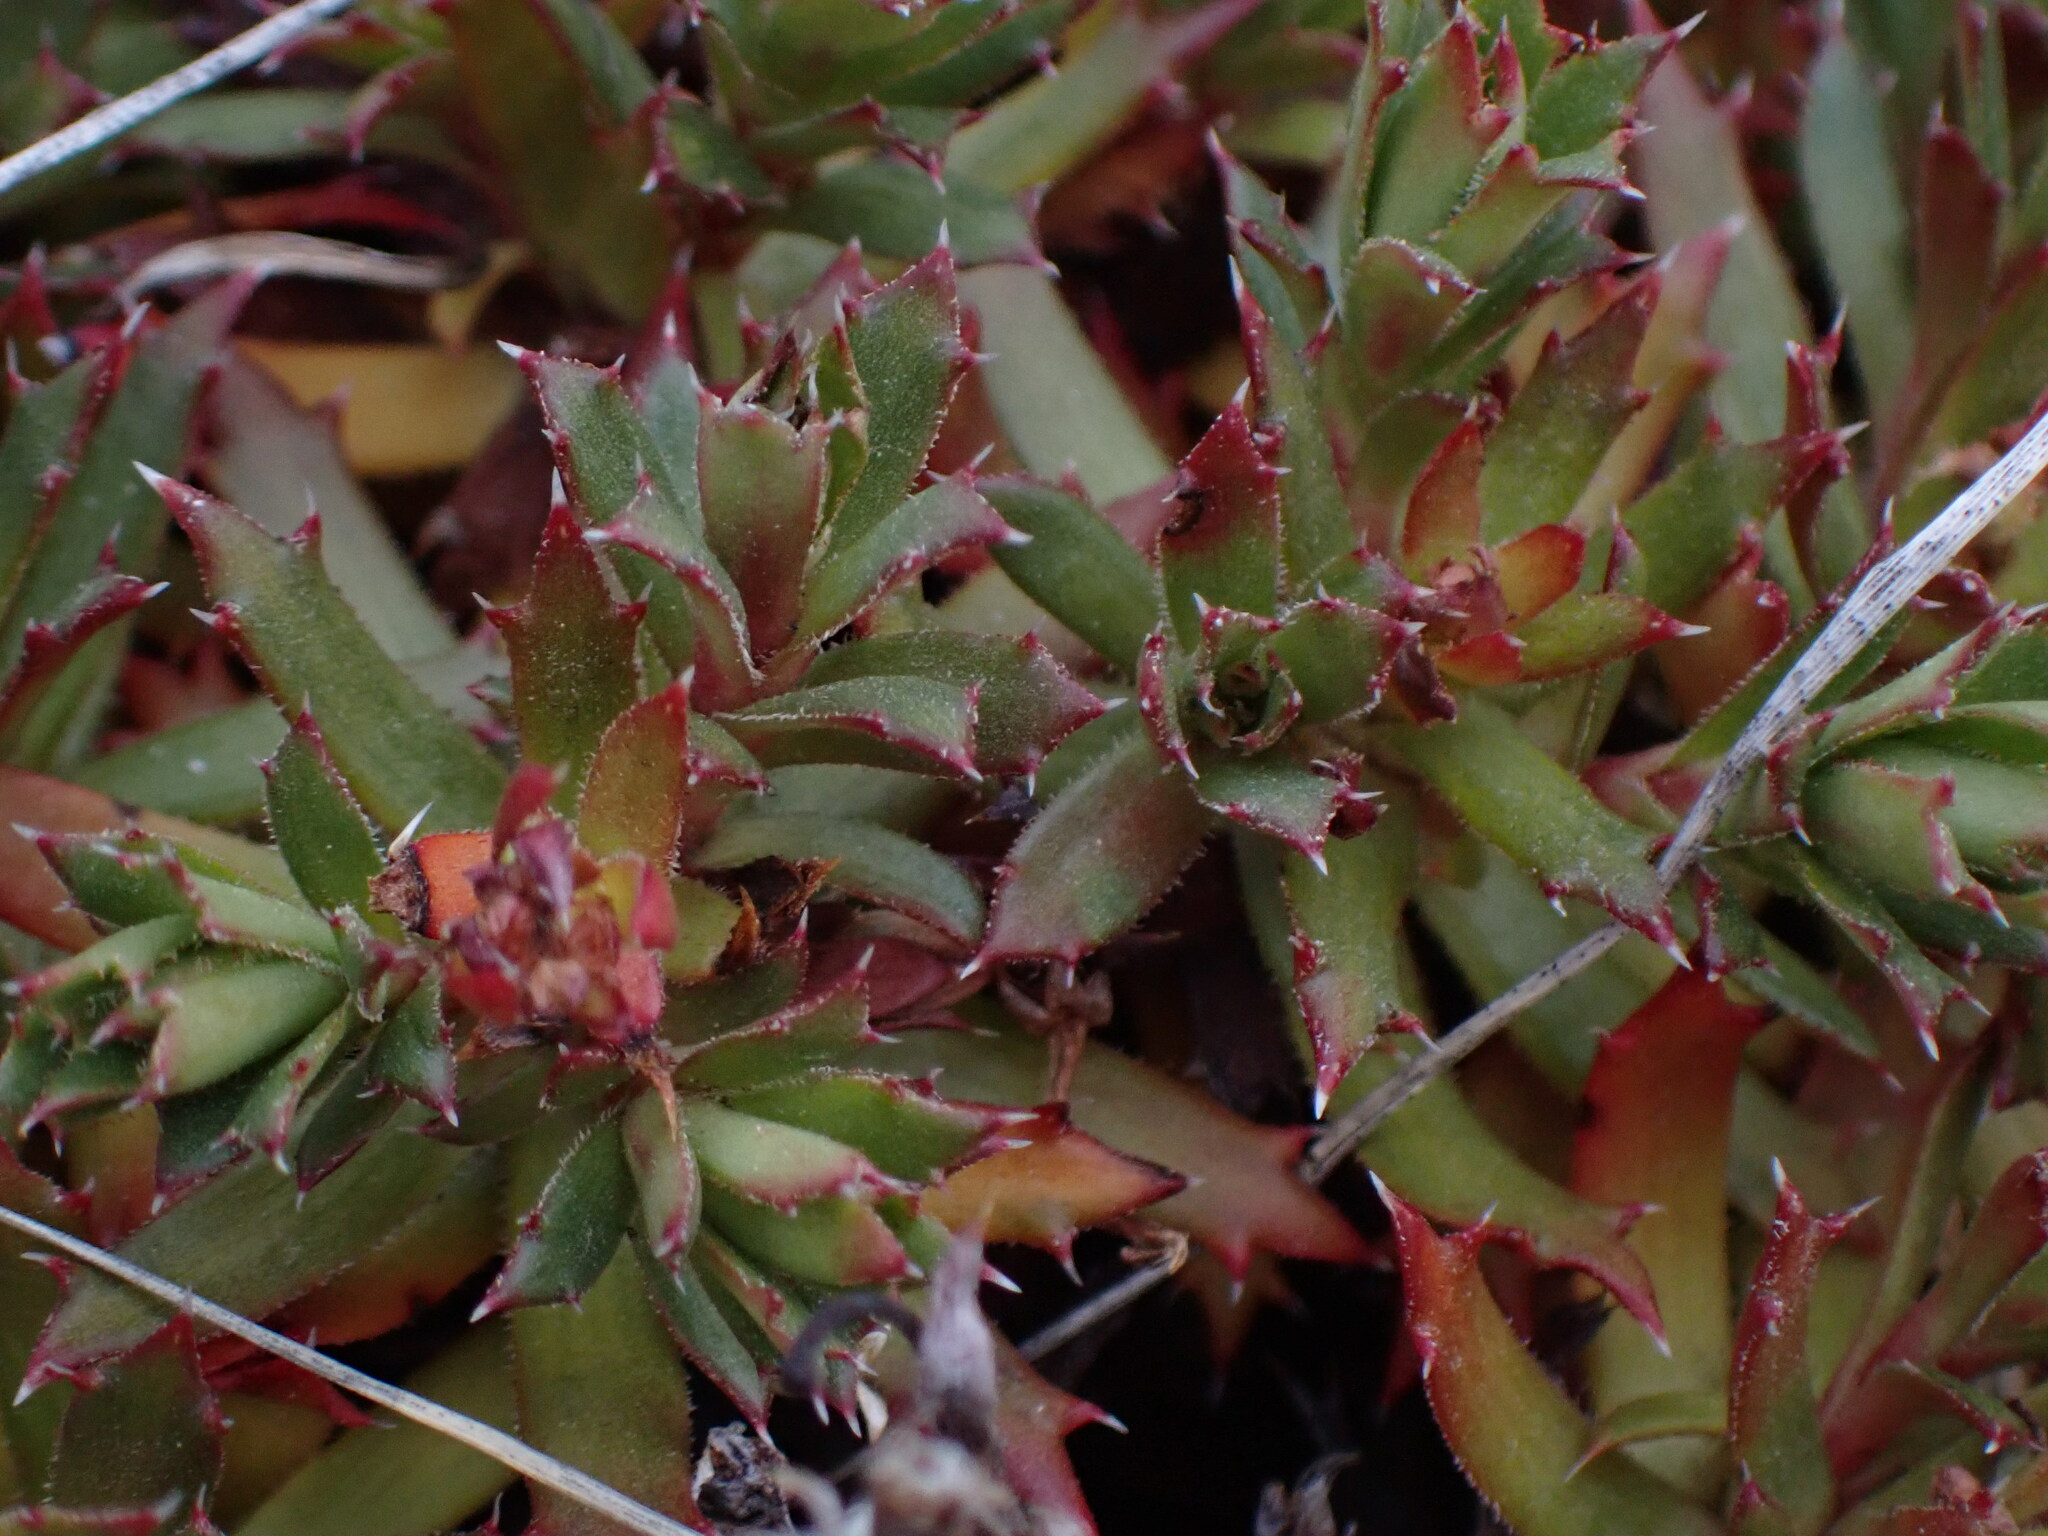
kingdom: Plantae
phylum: Tracheophyta
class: Magnoliopsida
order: Saxifragales
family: Saxifragaceae
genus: Saxifraga
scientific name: Saxifraga tricuspidata
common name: Prickly saxifrage
